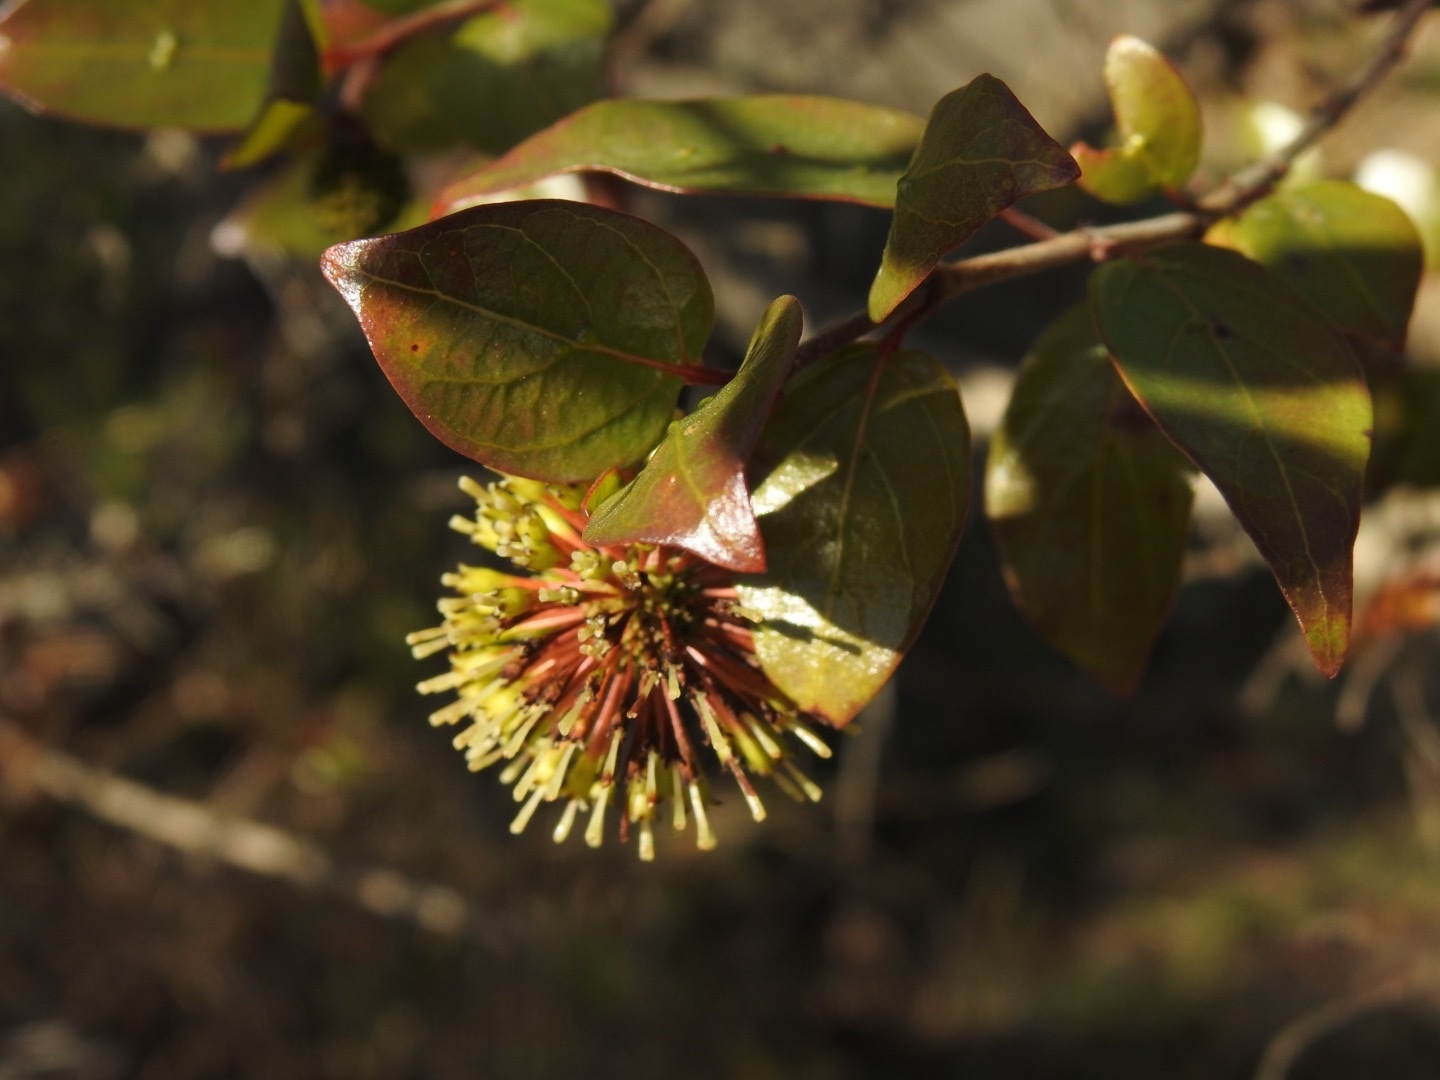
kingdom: Plantae
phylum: Tracheophyta
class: Magnoliopsida
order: Gentianales
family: Rubiaceae
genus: Cephalanthus
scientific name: Cephalanthus natalensis
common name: Strawberry bush
